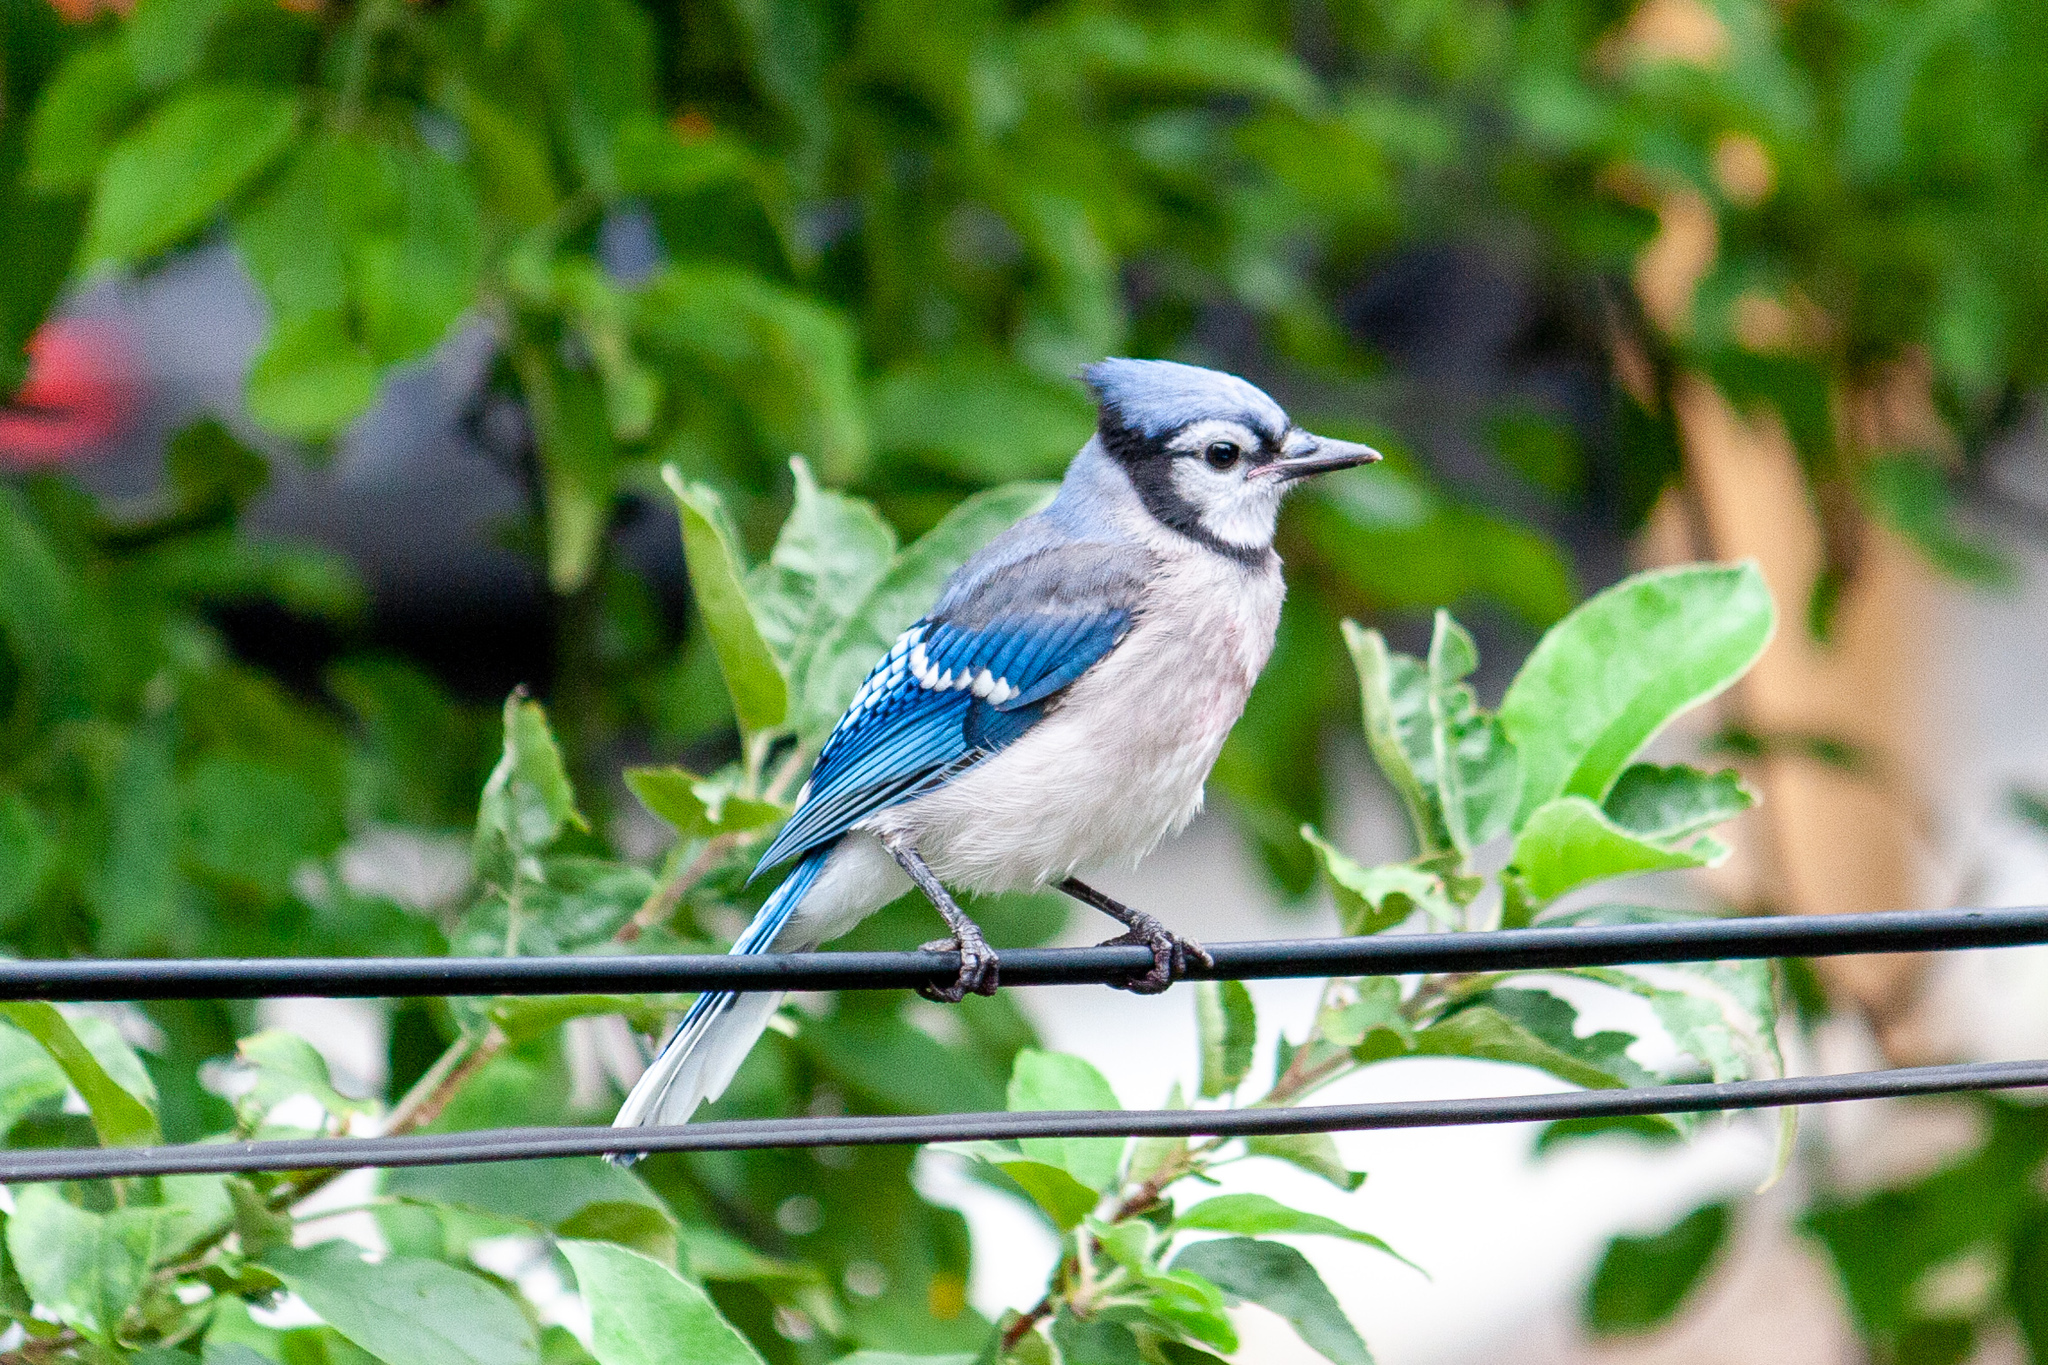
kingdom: Animalia
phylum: Chordata
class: Aves
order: Passeriformes
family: Corvidae
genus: Cyanocitta
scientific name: Cyanocitta cristata
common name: Blue jay
